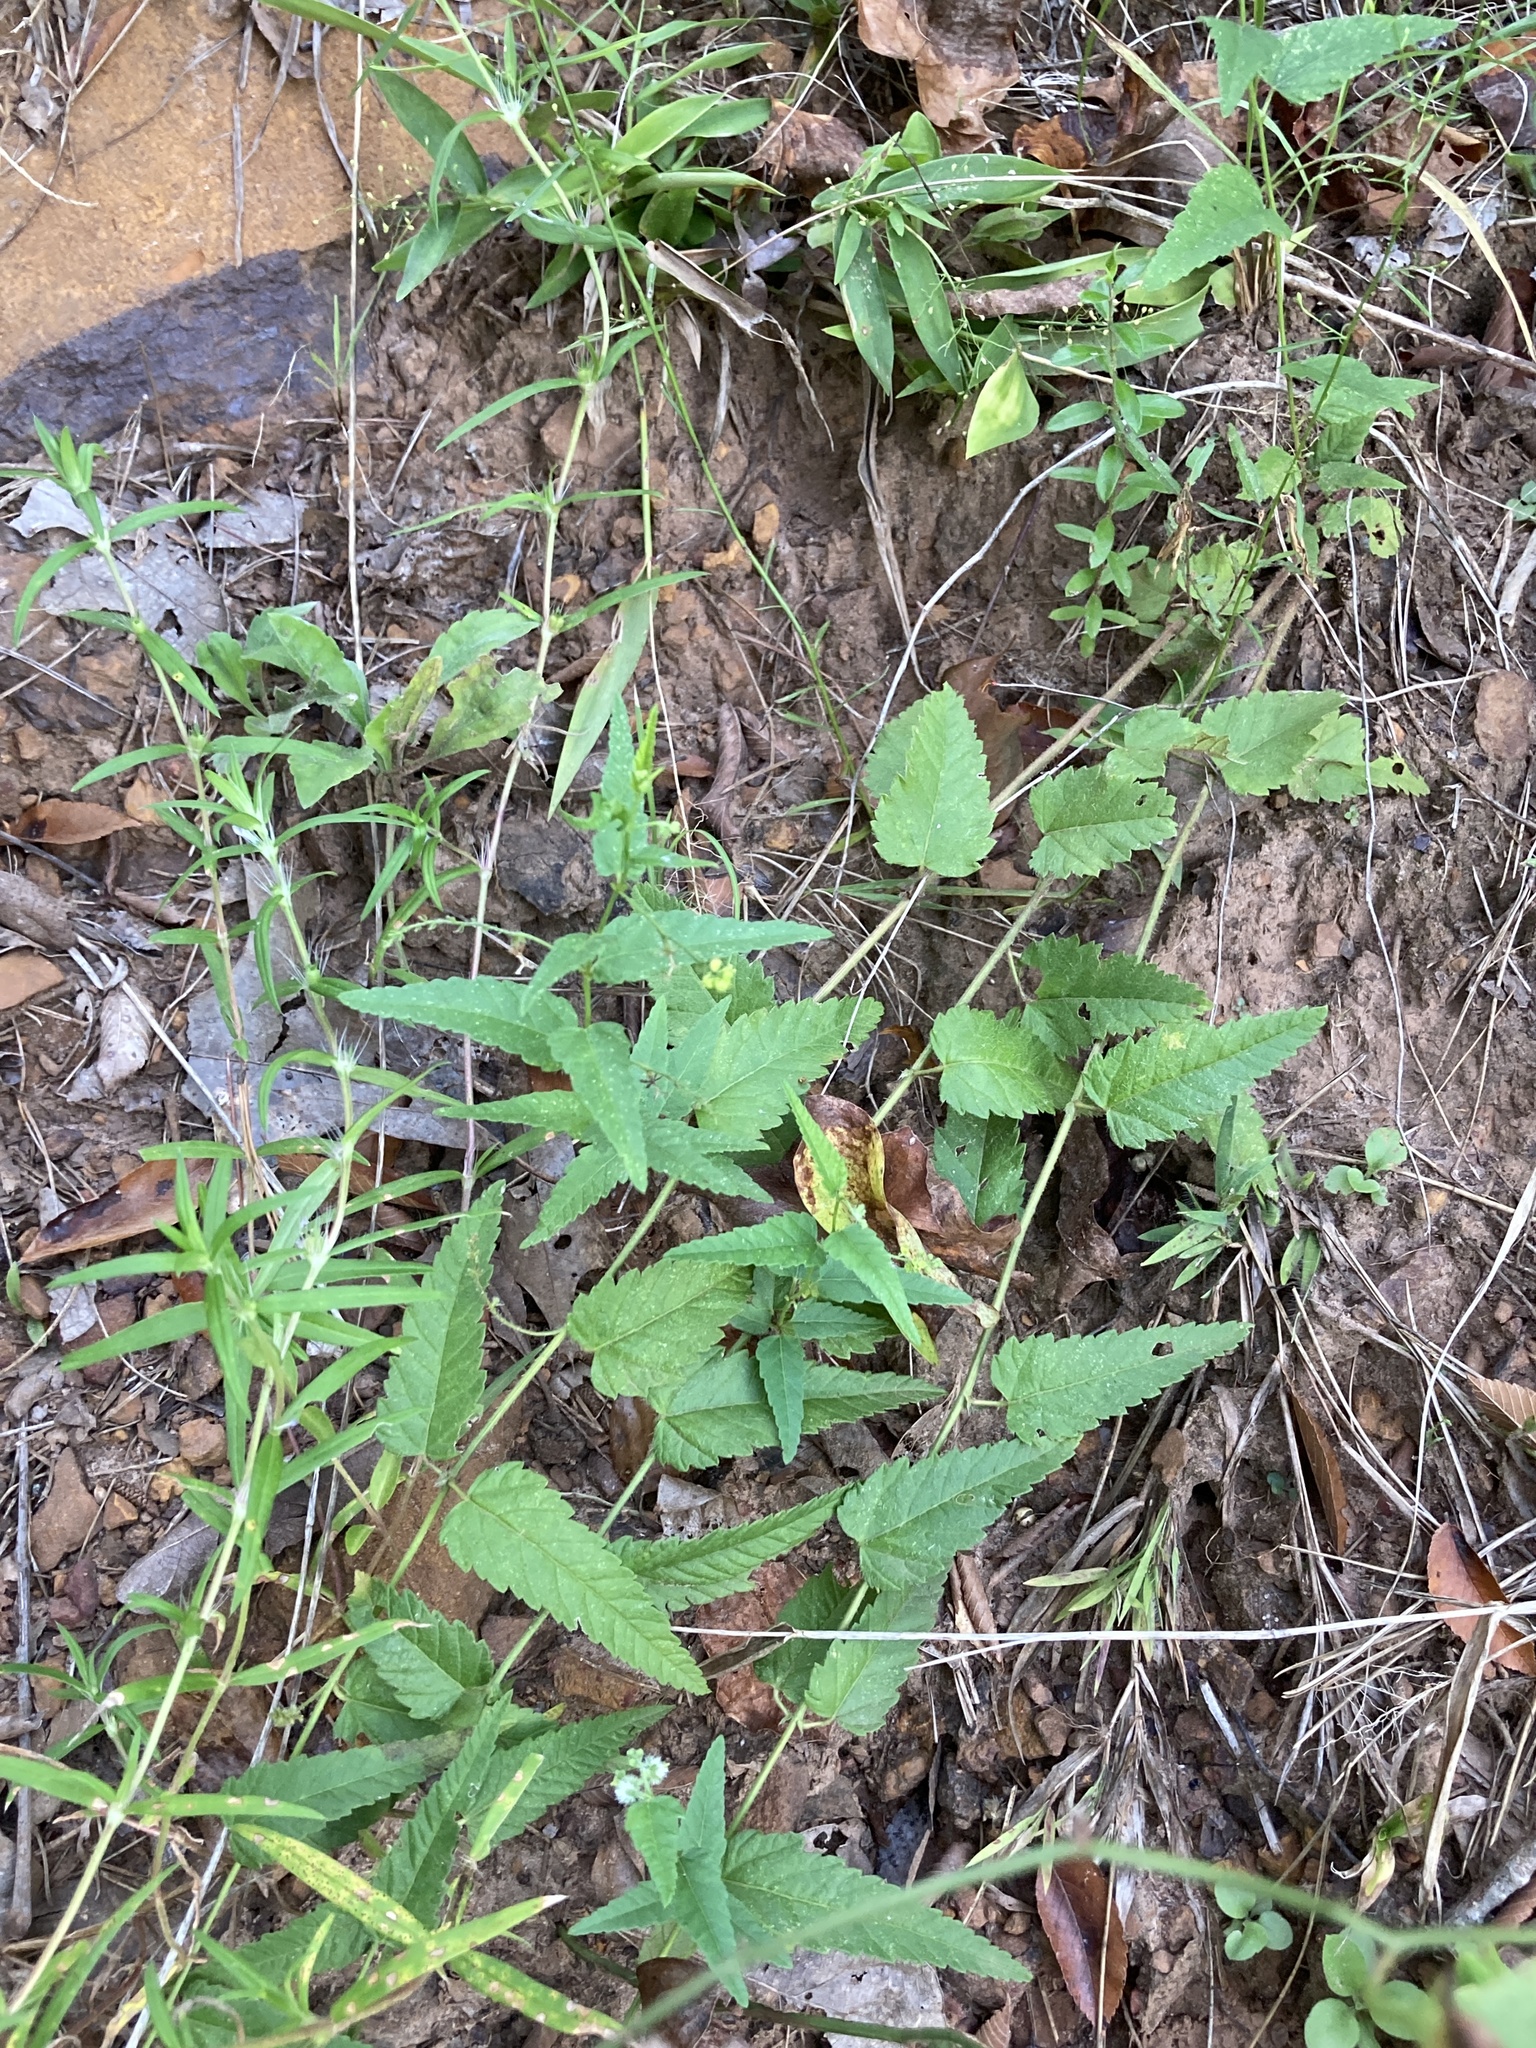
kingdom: Plantae
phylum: Tracheophyta
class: Magnoliopsida
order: Malpighiales
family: Euphorbiaceae
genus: Tragia
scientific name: Tragia urticifolia
